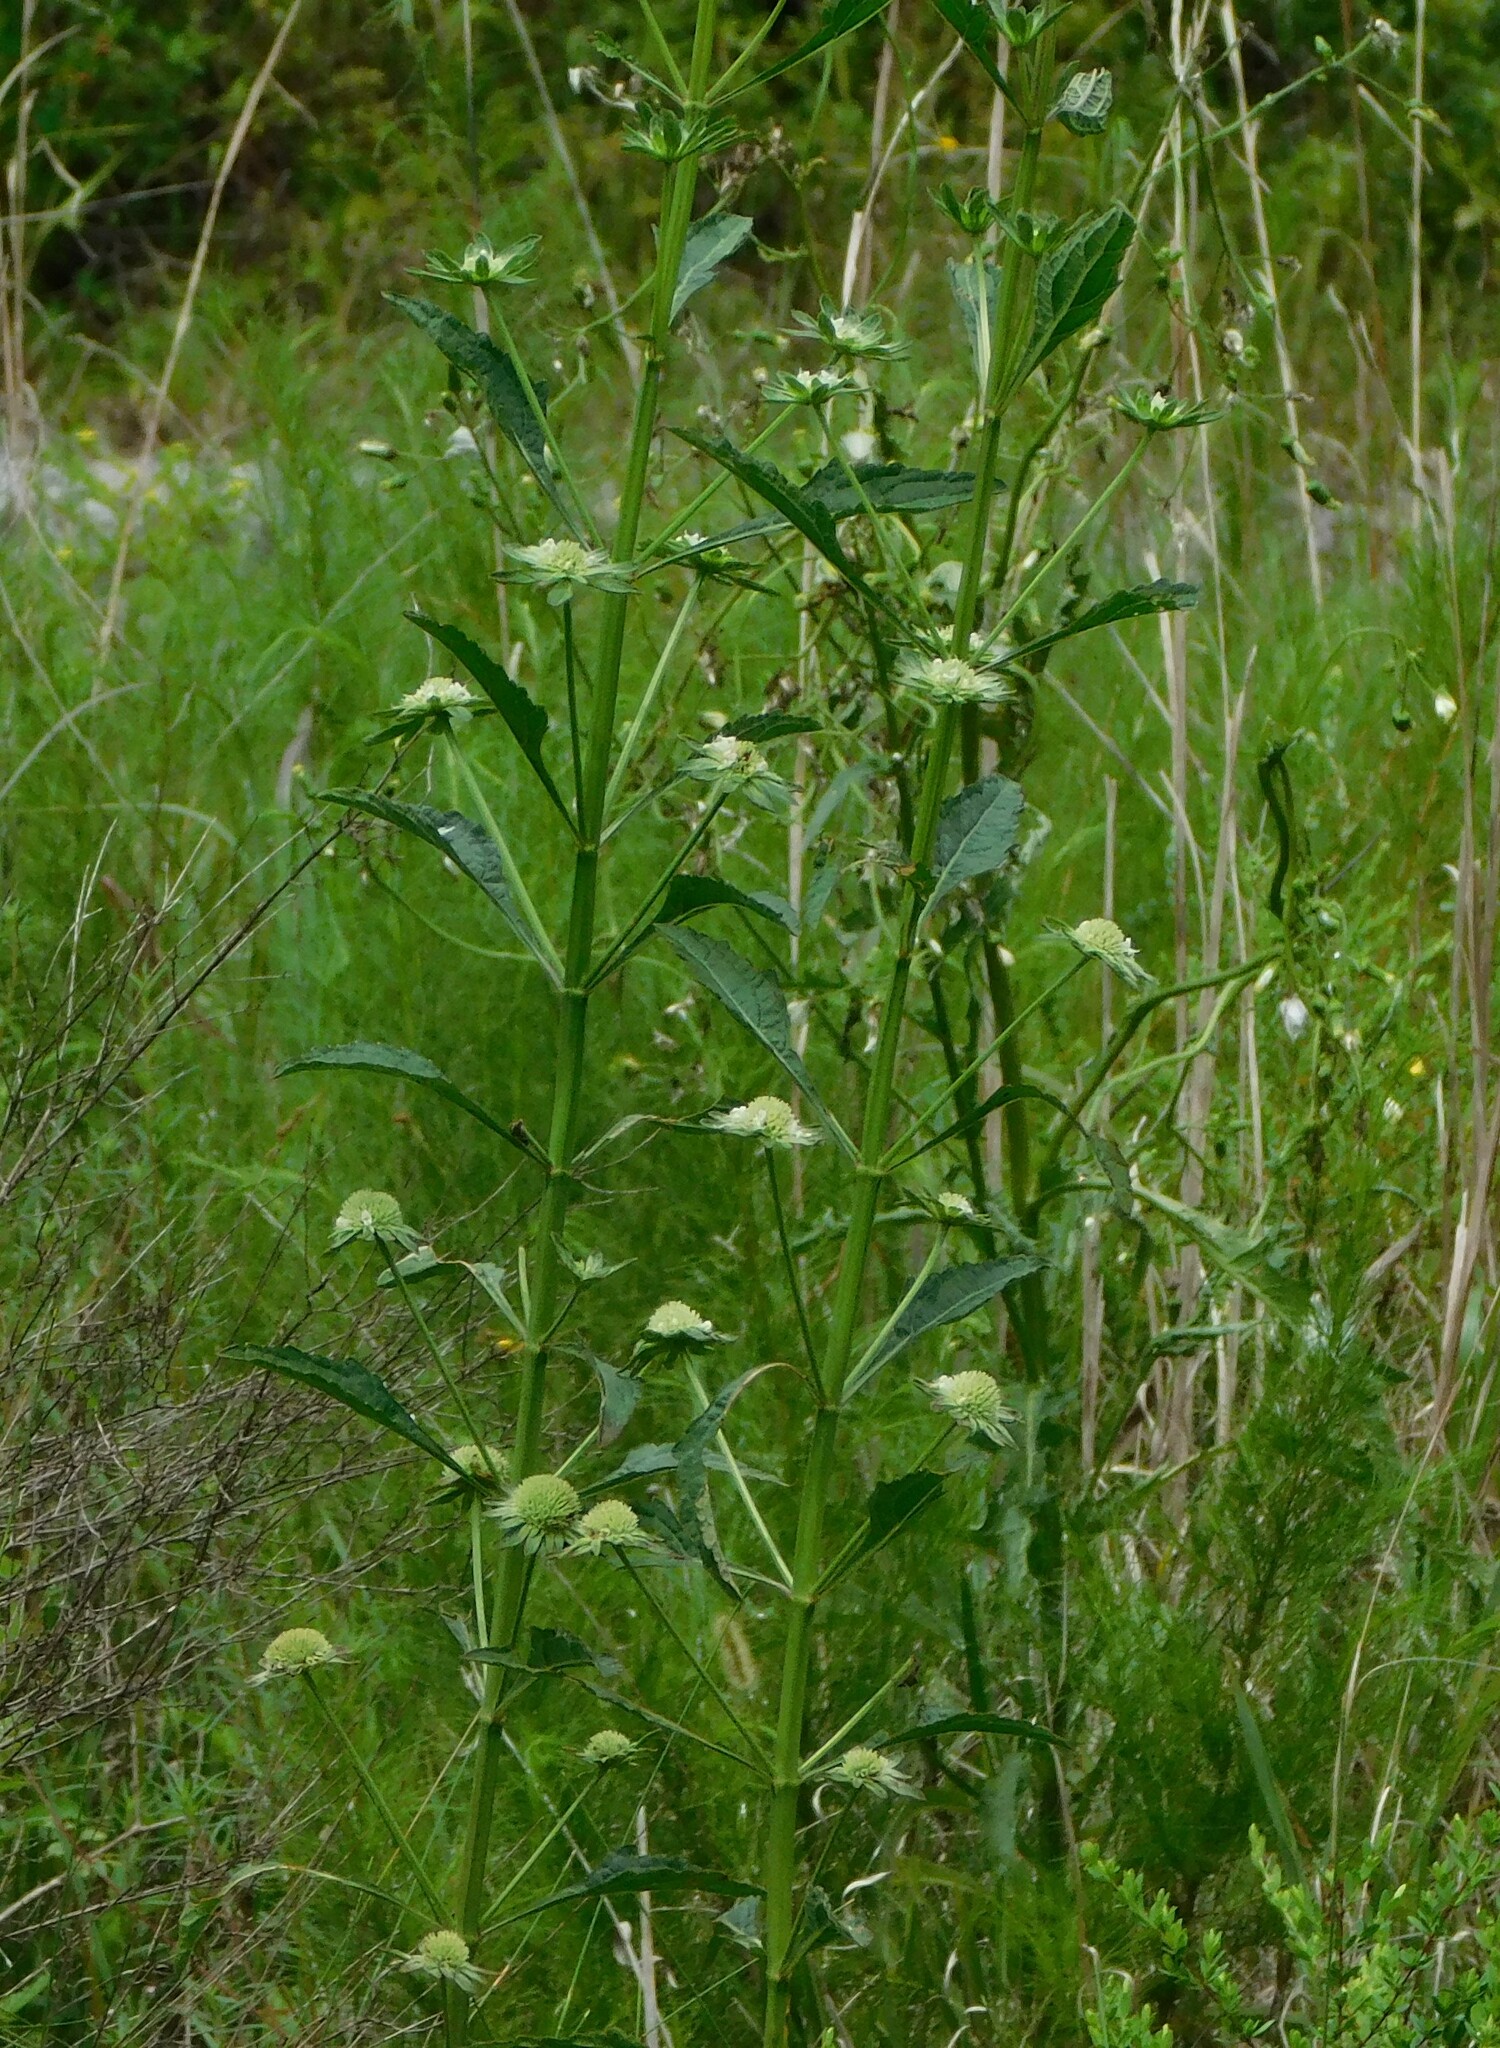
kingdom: Plantae
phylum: Tracheophyta
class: Magnoliopsida
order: Lamiales
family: Lamiaceae
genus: Hyptis
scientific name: Hyptis alata
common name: Cluster bush-mint
